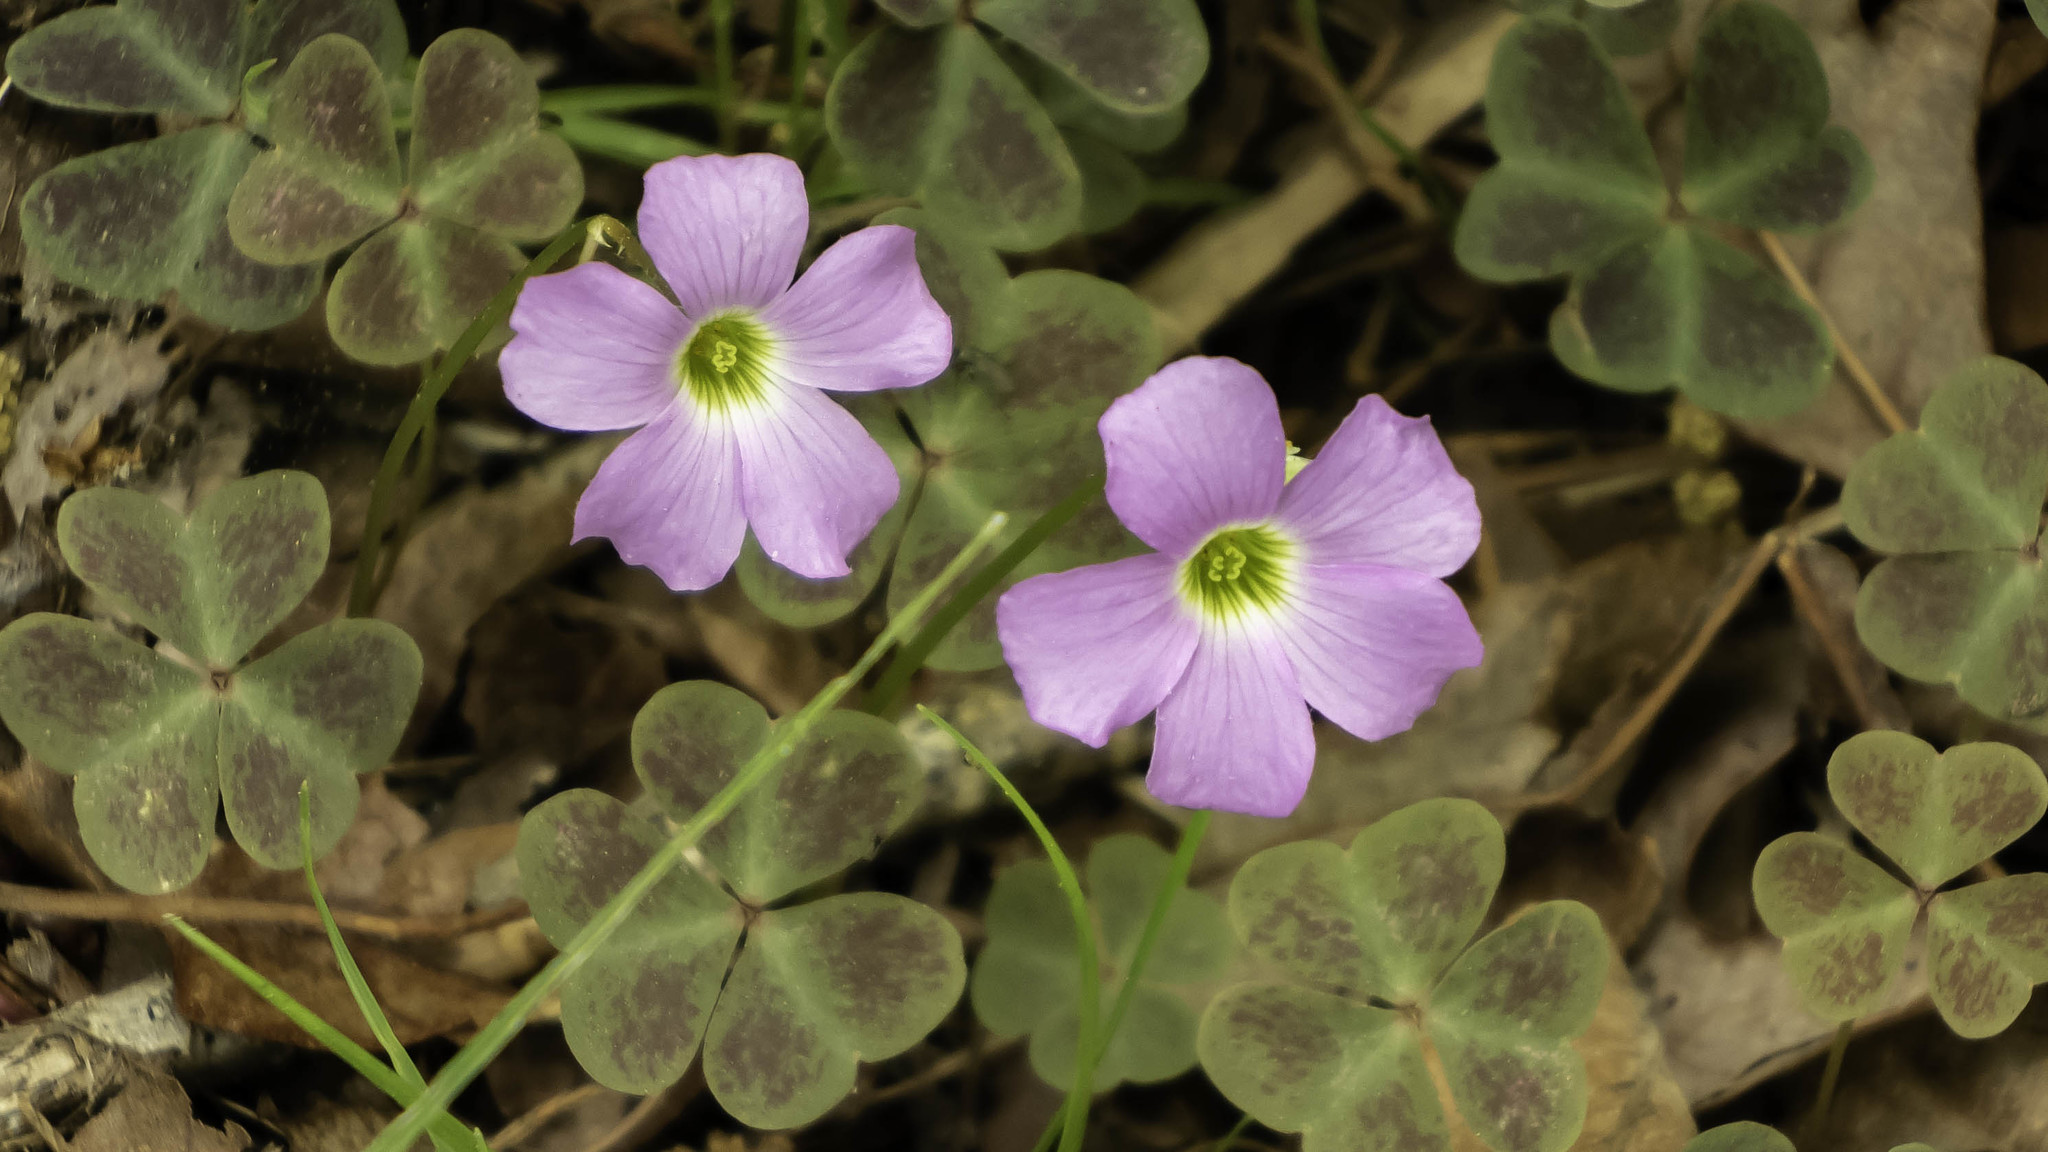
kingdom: Plantae
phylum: Tracheophyta
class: Magnoliopsida
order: Oxalidales
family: Oxalidaceae
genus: Oxalis
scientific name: Oxalis violacea
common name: Violet wood-sorrel
